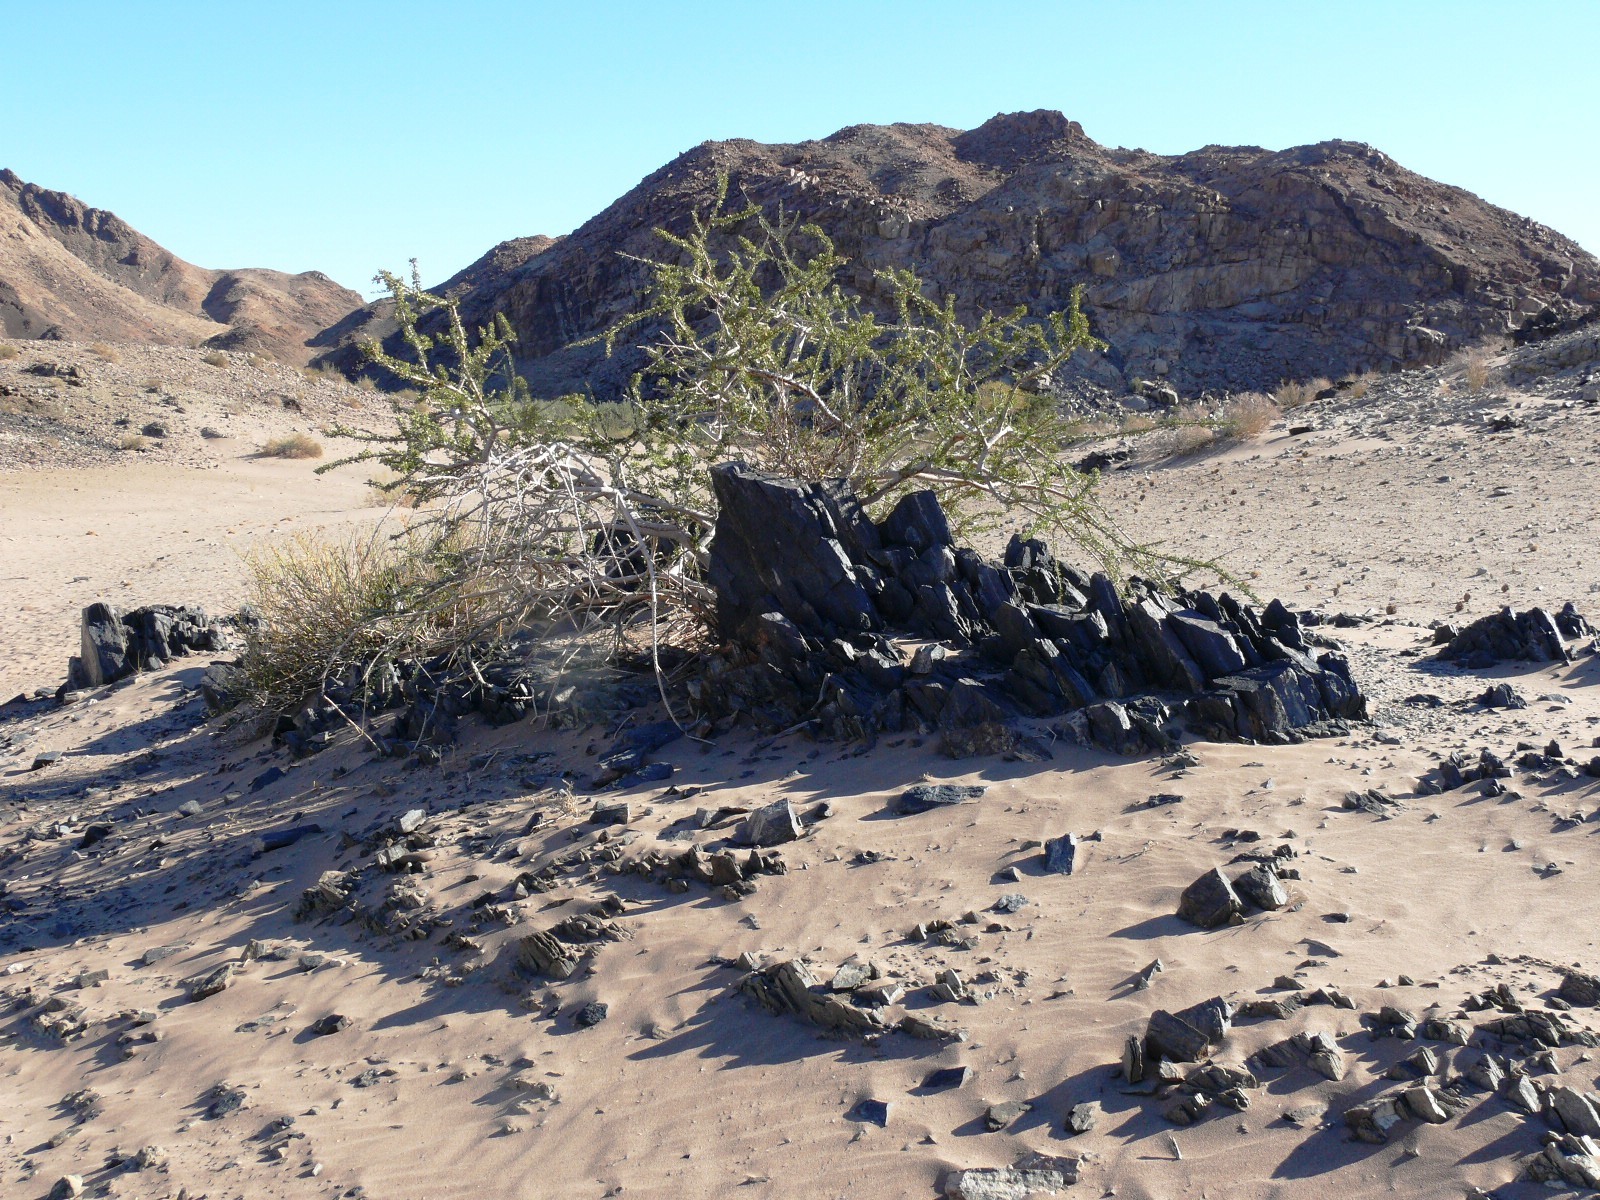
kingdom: Plantae
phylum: Tracheophyta
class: Magnoliopsida
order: Brassicales
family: Capparaceae
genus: Boscia
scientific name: Boscia foetida
